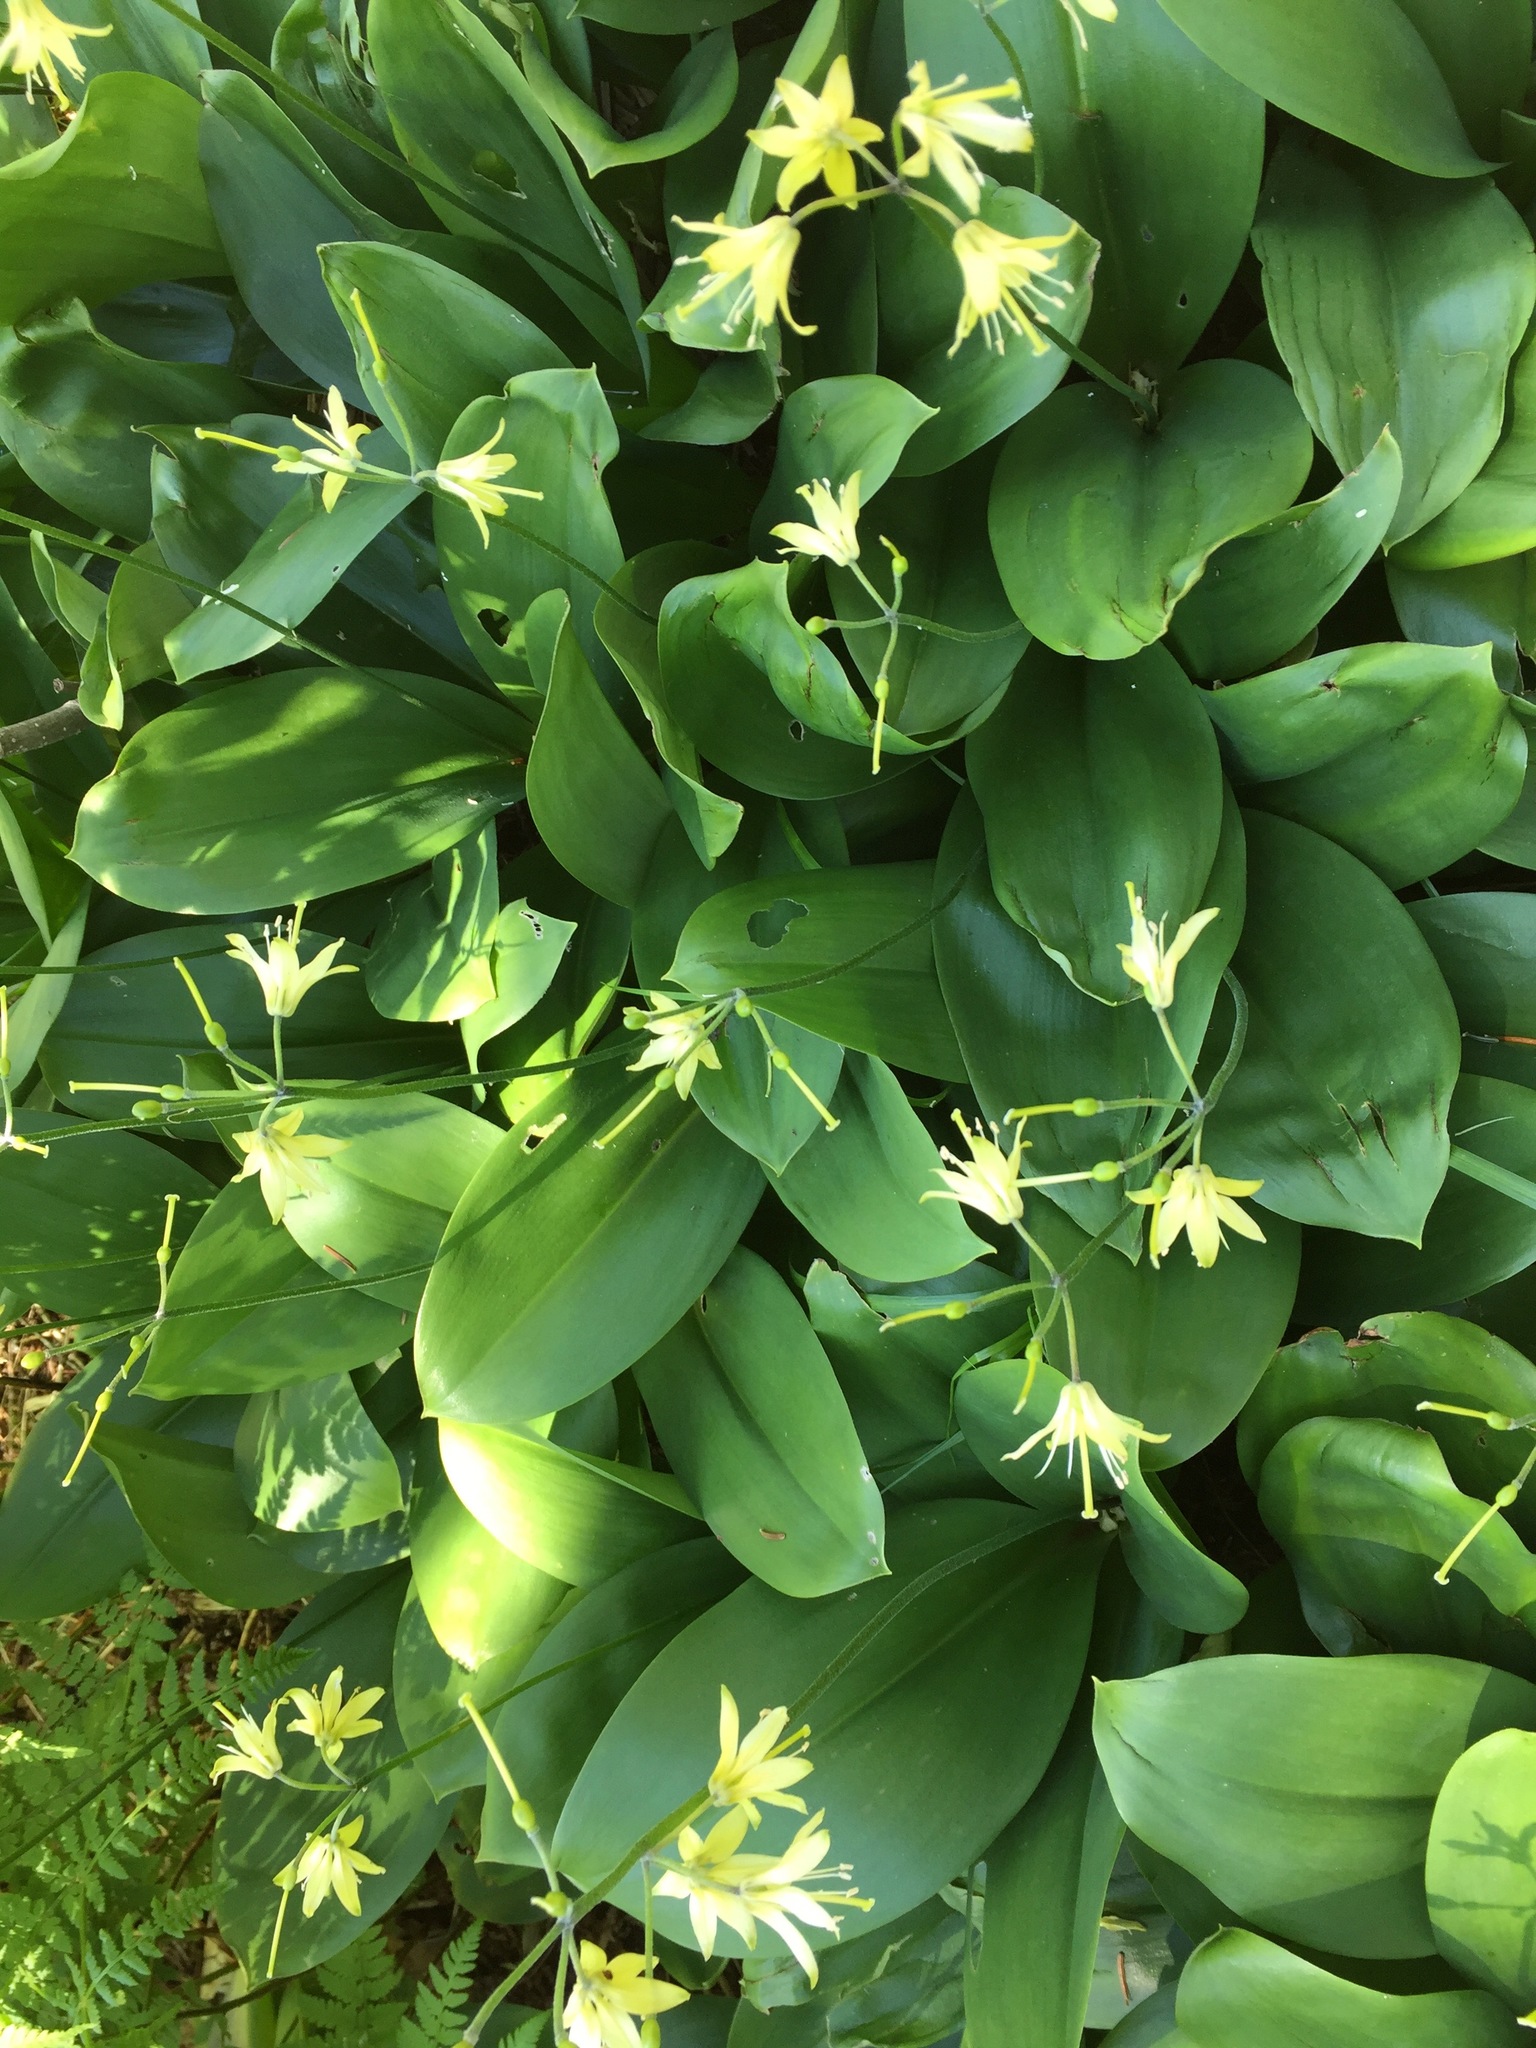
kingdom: Plantae
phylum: Tracheophyta
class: Liliopsida
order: Liliales
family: Liliaceae
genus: Clintonia
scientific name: Clintonia borealis
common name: Yellow clintonia
